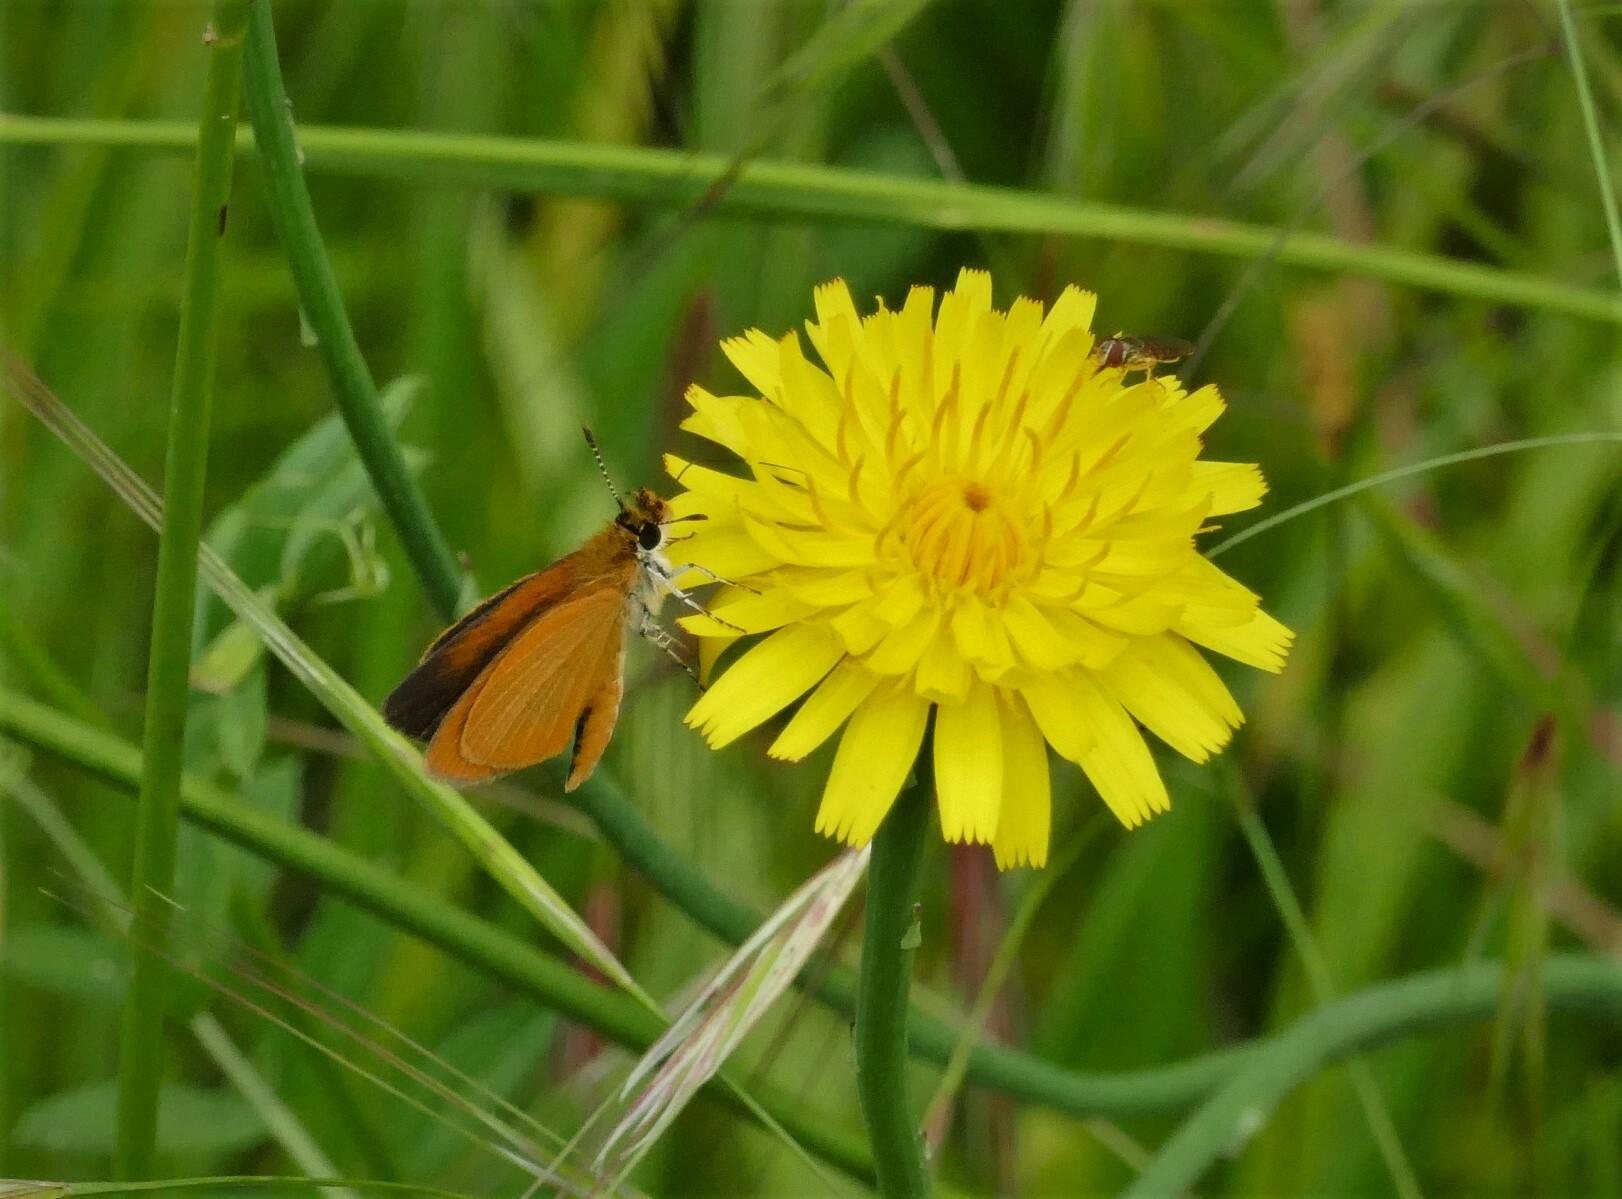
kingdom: Animalia
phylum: Arthropoda
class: Insecta
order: Lepidoptera
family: Hesperiidae
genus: Ancyloxypha
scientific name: Ancyloxypha numitor
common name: Least skipper
